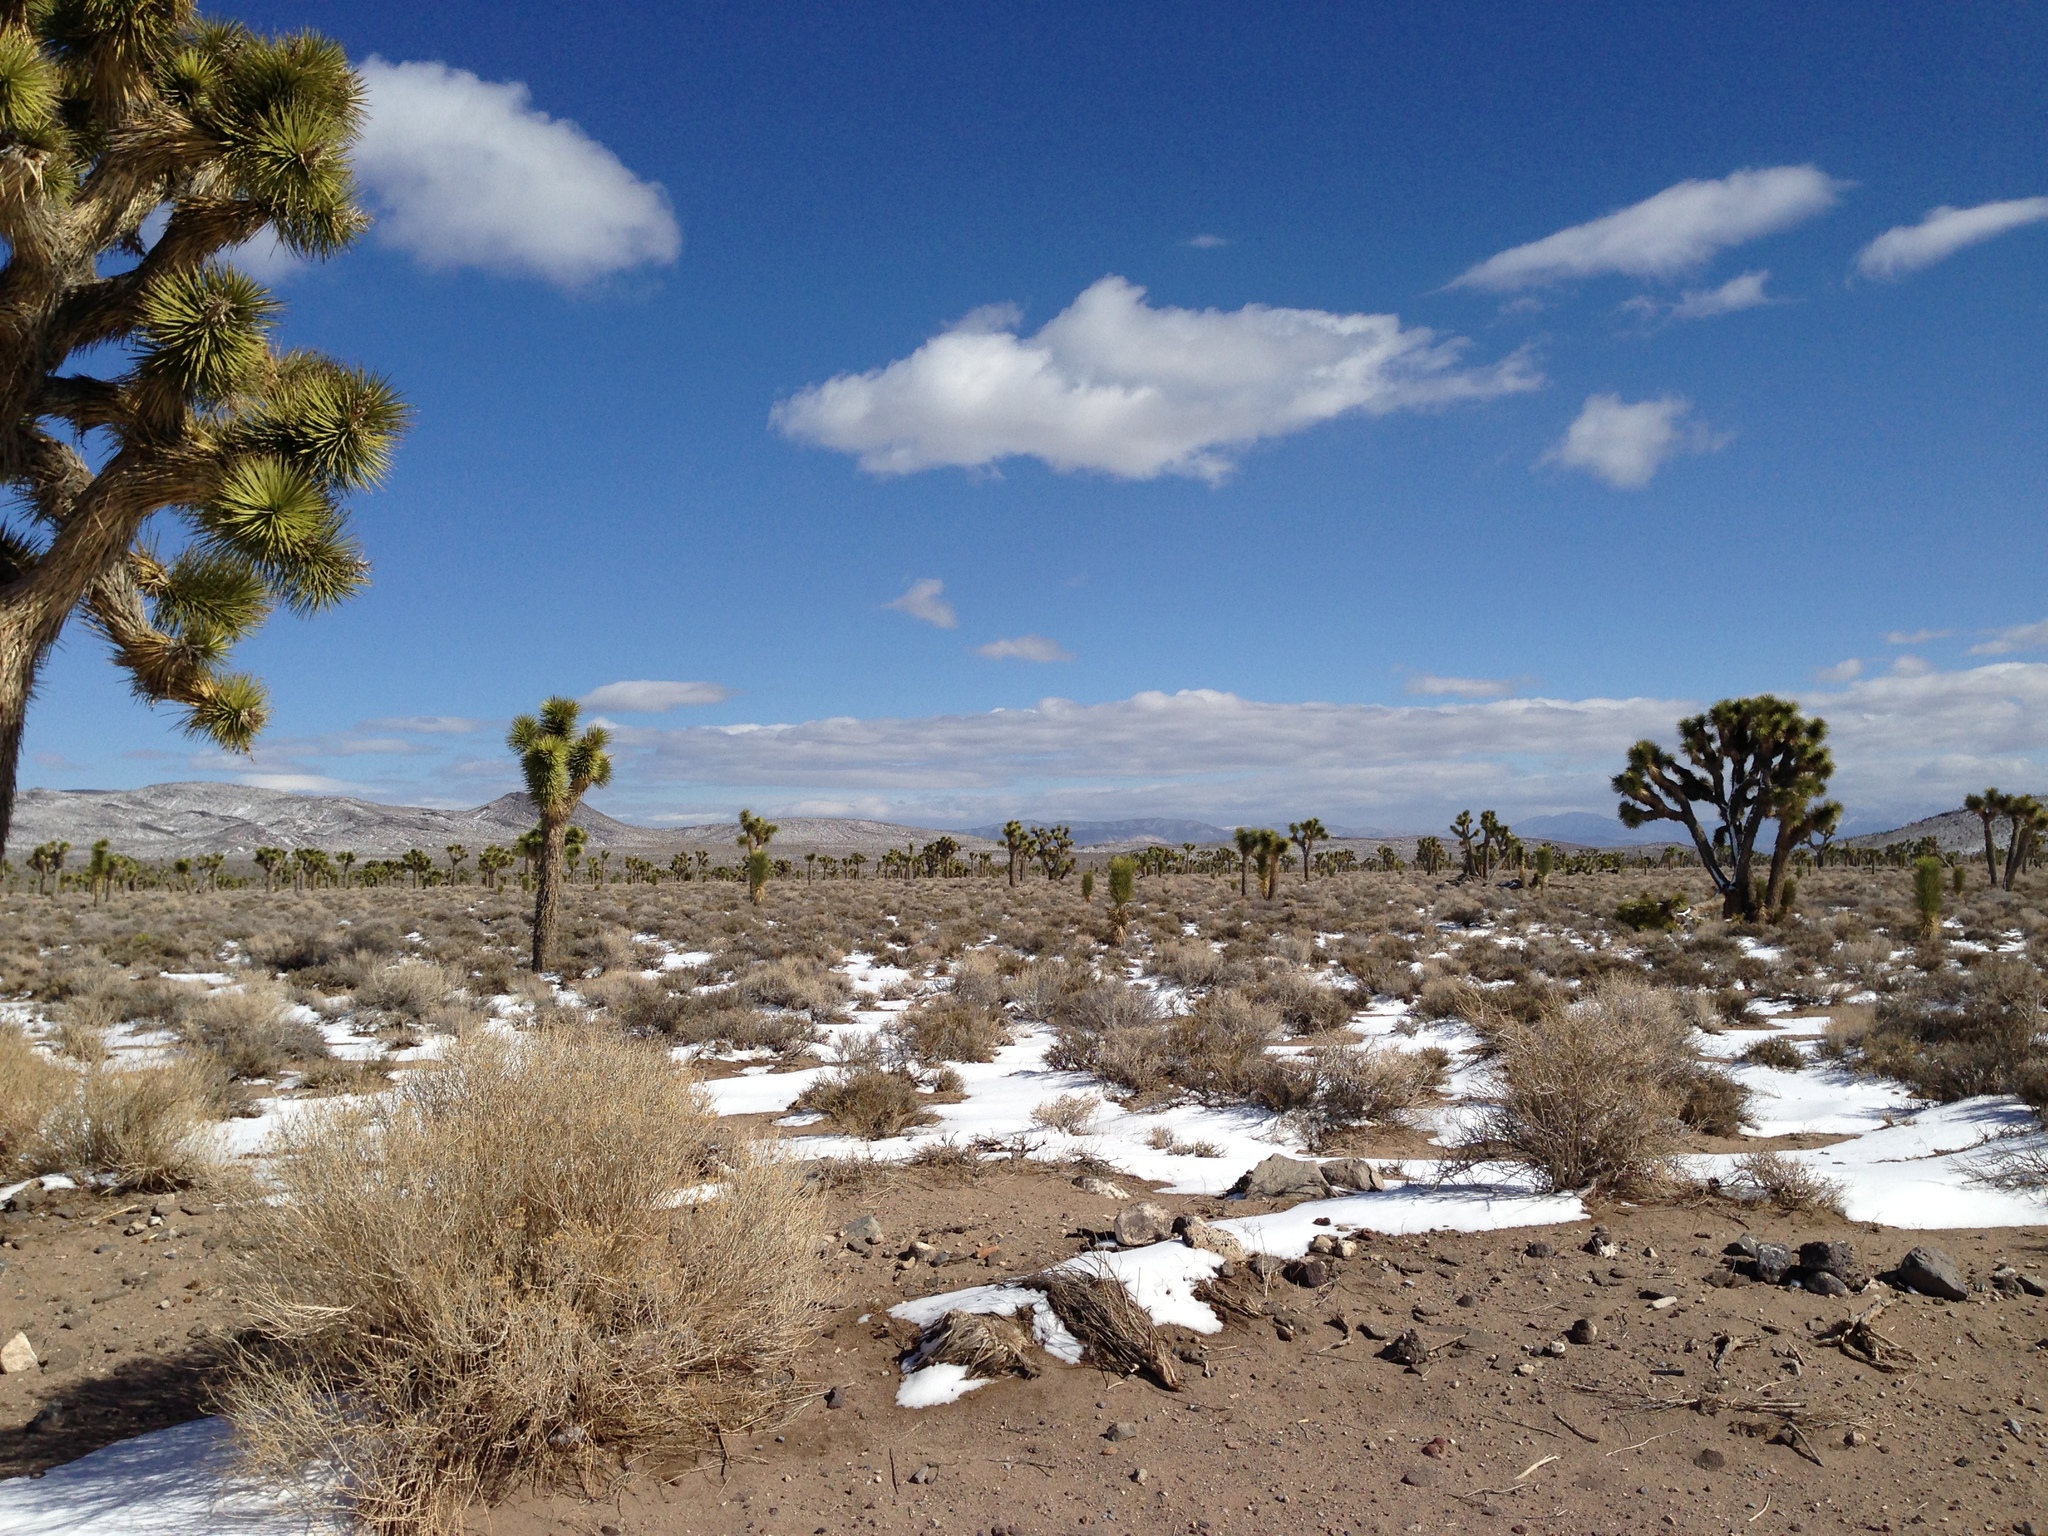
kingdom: Plantae
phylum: Tracheophyta
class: Liliopsida
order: Asparagales
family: Asparagaceae
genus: Yucca
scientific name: Yucca brevifolia
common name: Joshua tree
